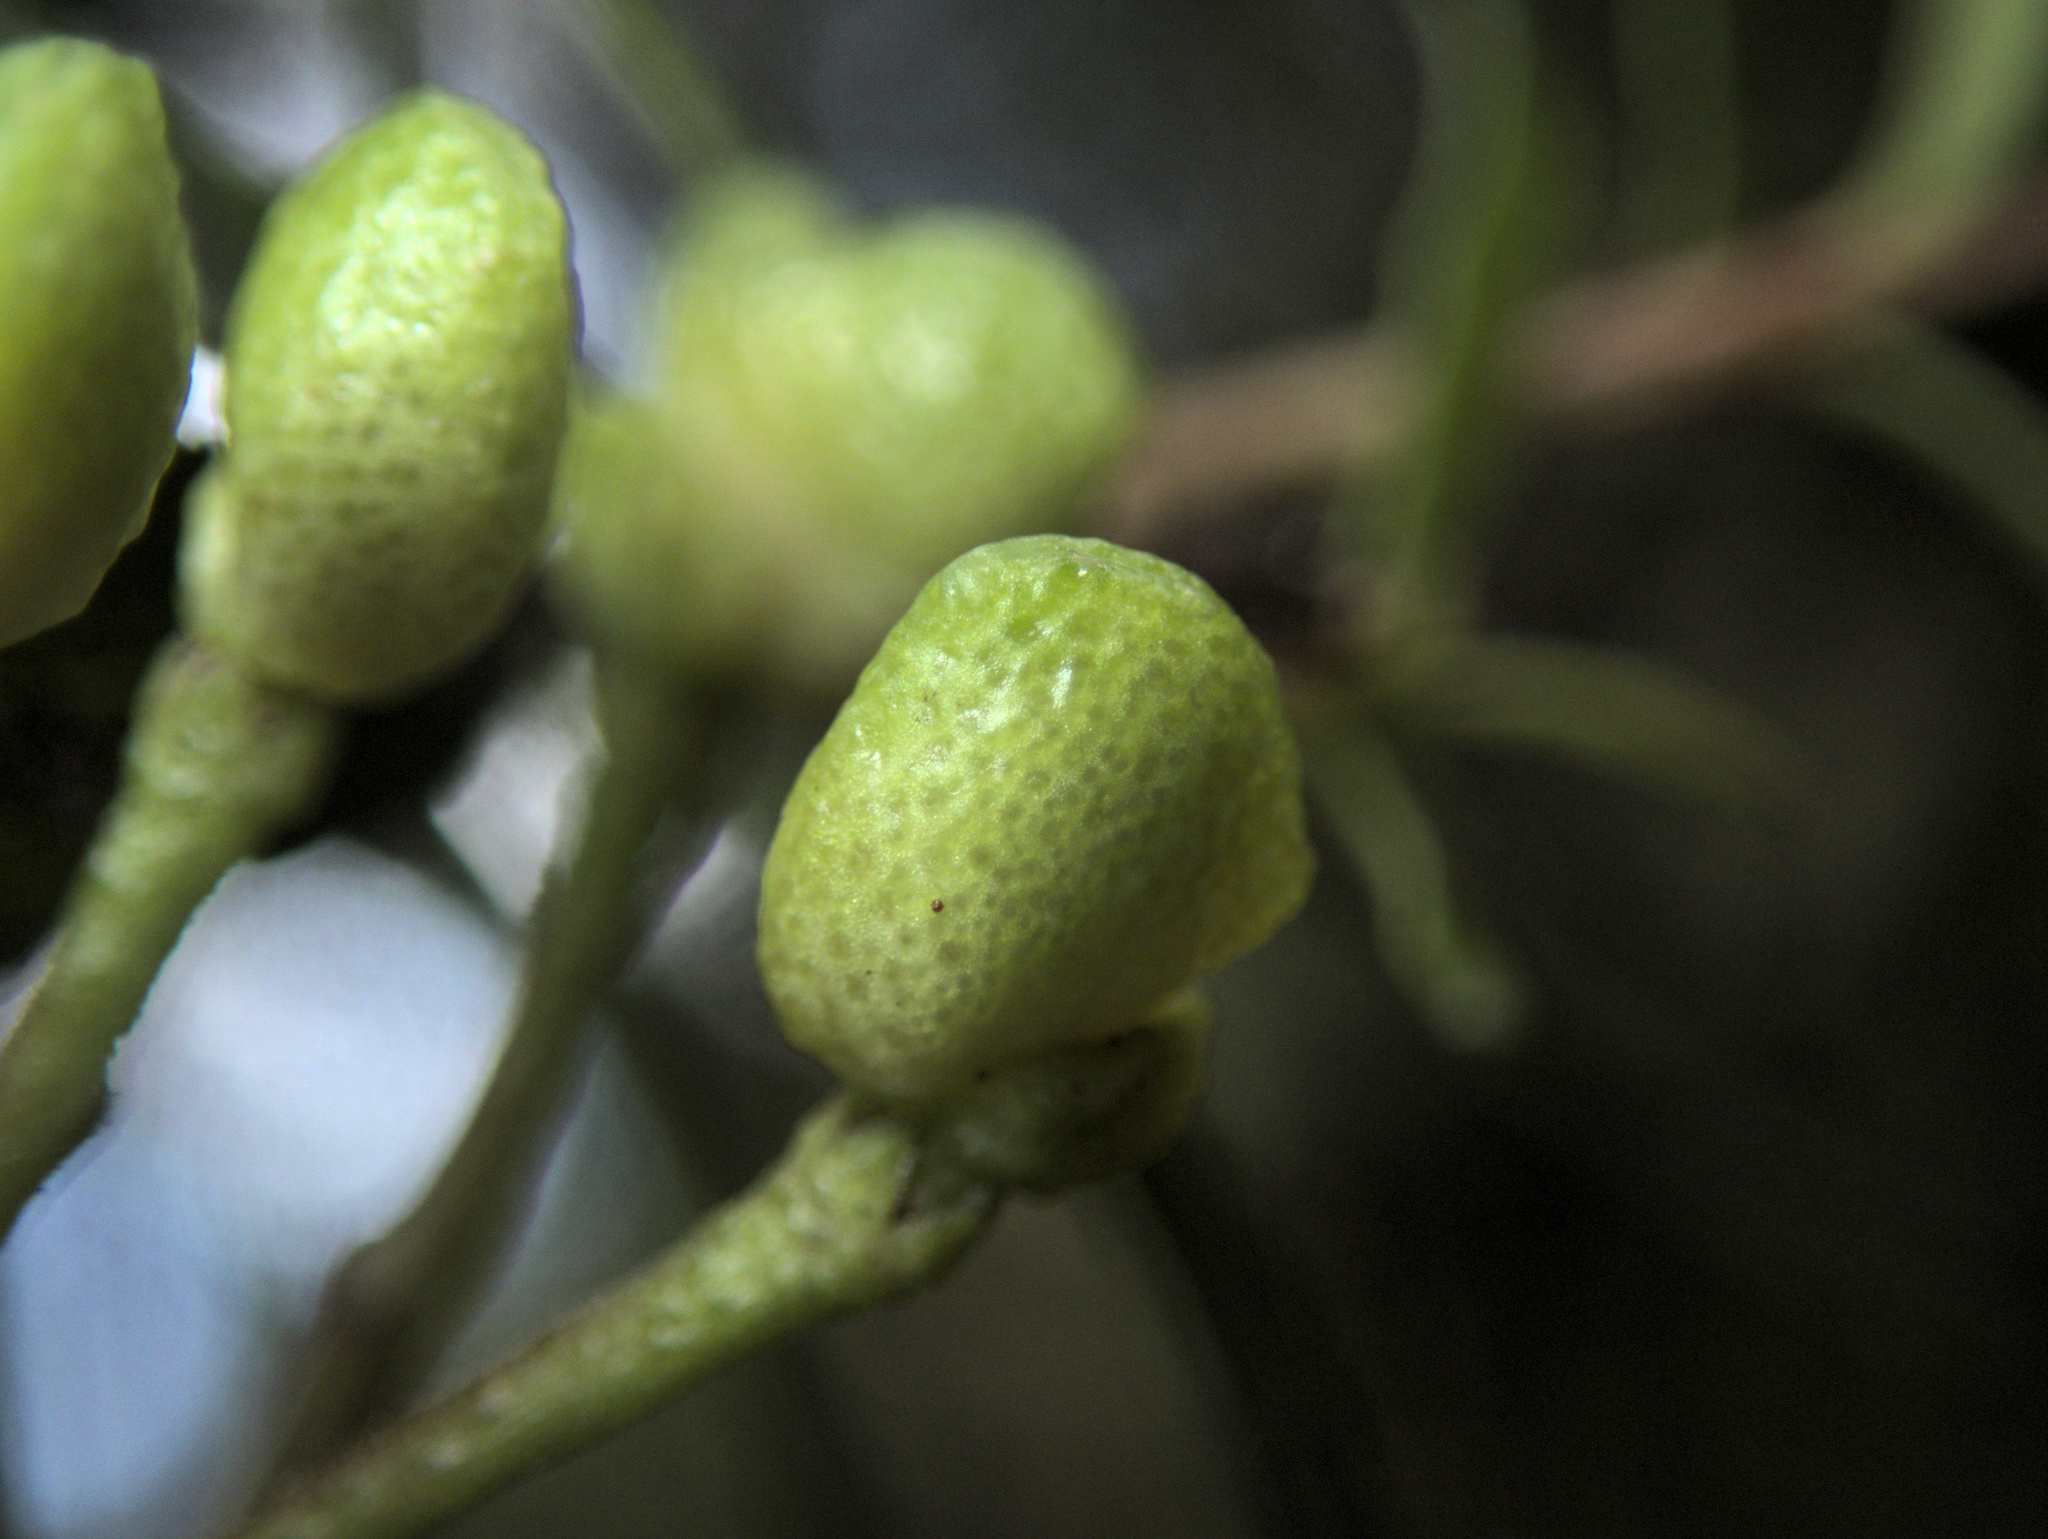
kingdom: Plantae
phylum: Tracheophyta
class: Magnoliopsida
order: Sapindales
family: Rutaceae
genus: Leionema
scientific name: Leionema nudum
